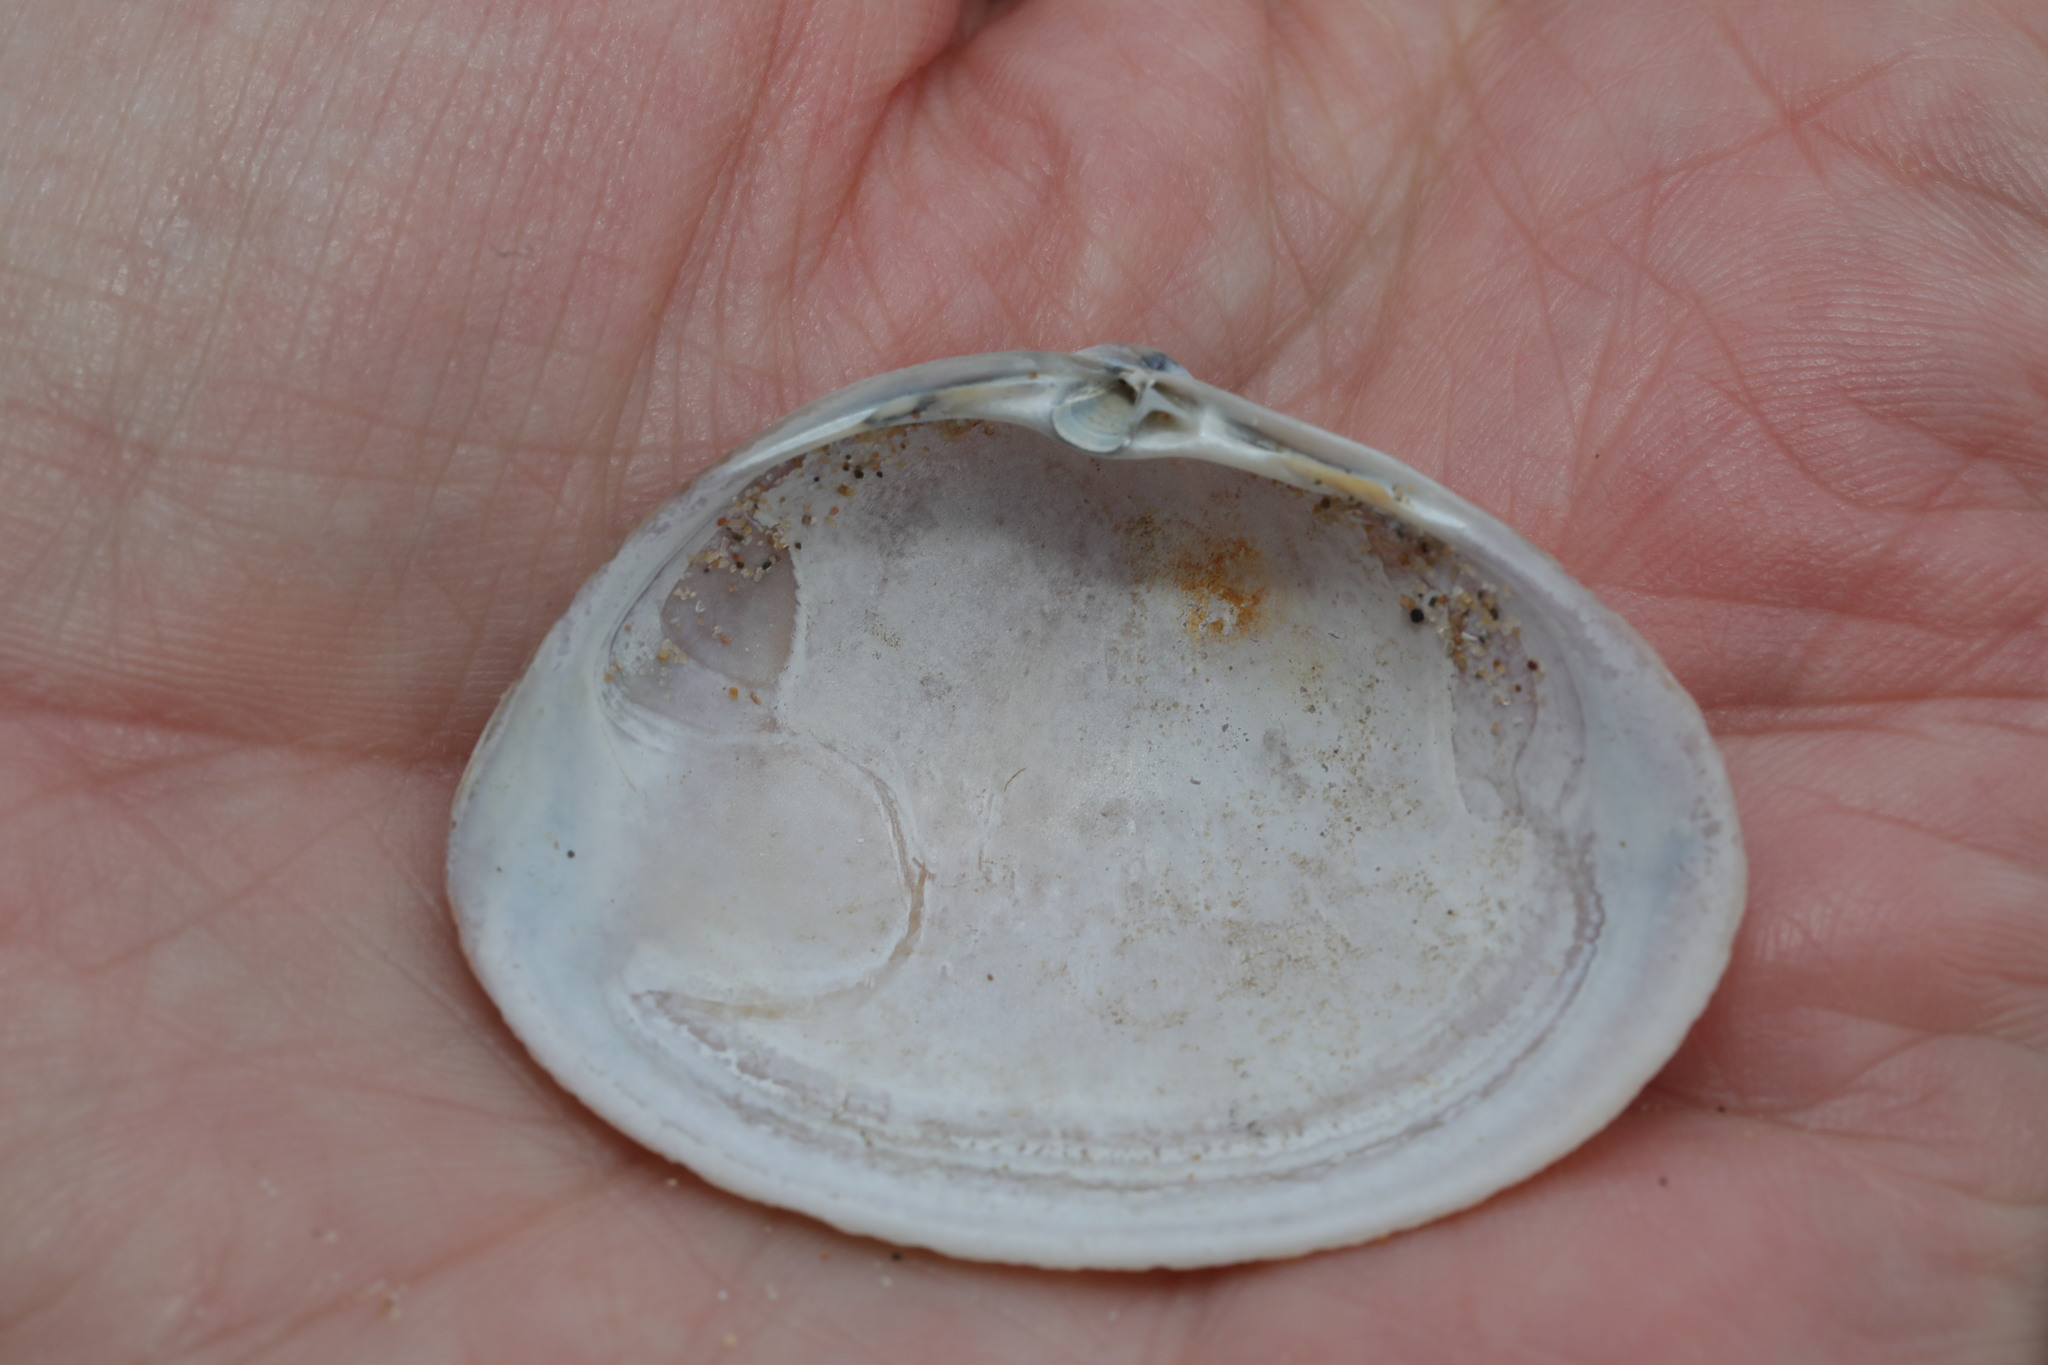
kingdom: Animalia
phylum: Mollusca
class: Bivalvia
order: Venerida
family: Mactridae
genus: Mactra
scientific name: Mactra stultorum
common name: Rayed trough shell
